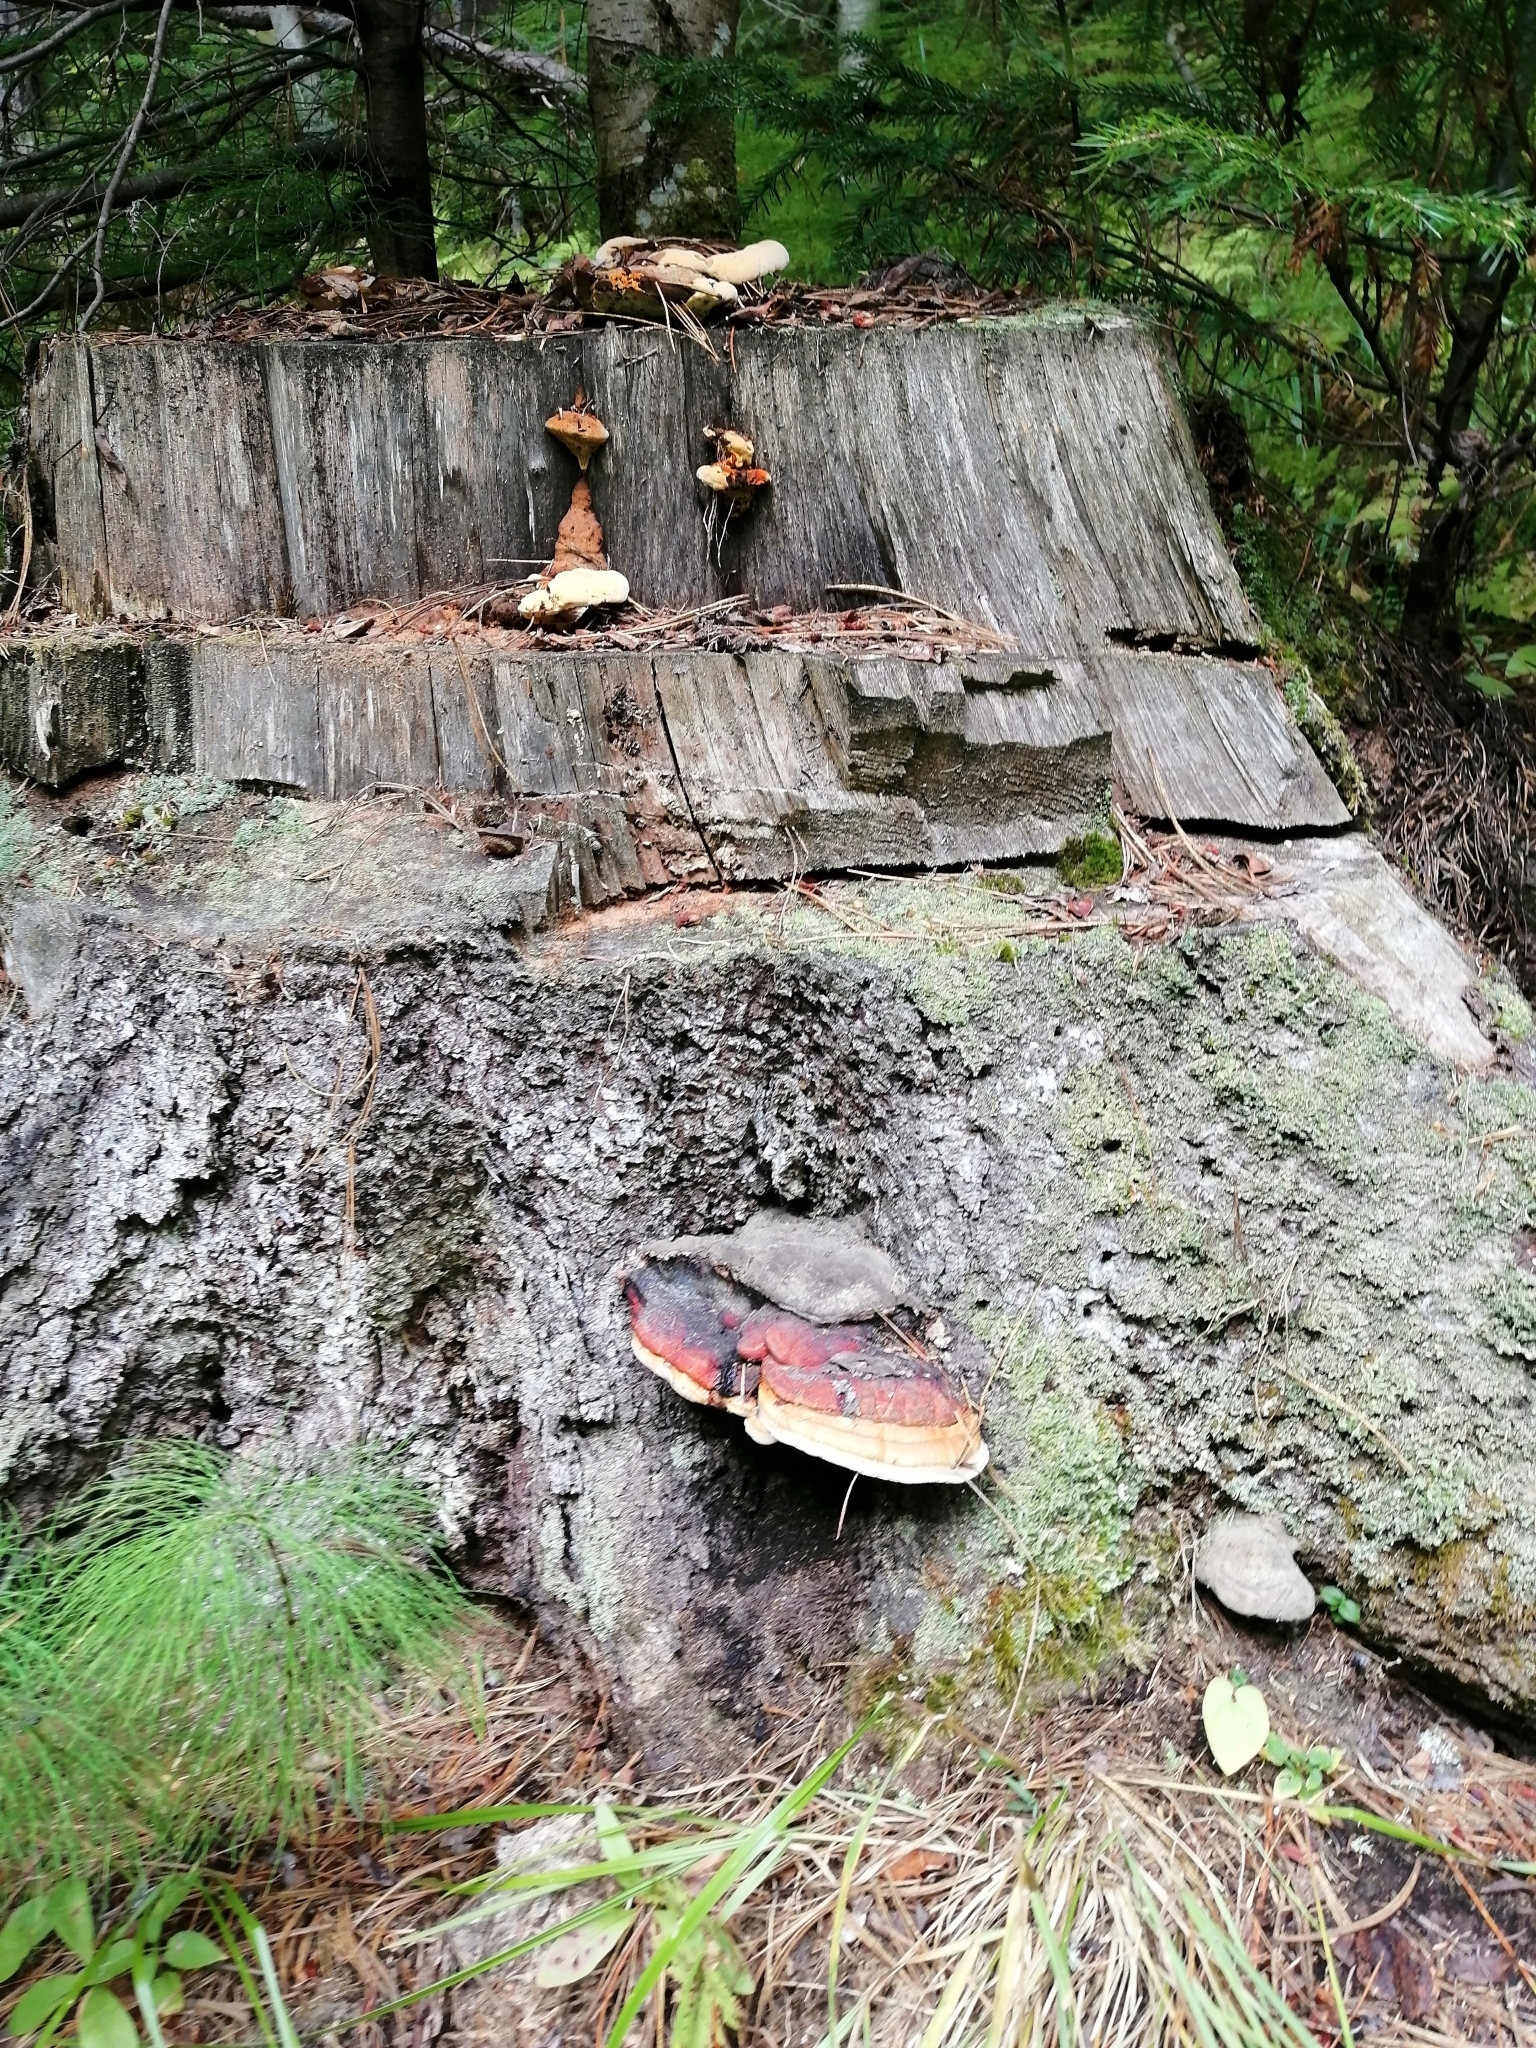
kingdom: Fungi
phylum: Basidiomycota
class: Agaricomycetes
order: Polyporales
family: Fomitopsidaceae
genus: Fomitopsis
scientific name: Fomitopsis pinicola
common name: Red-belted bracket
